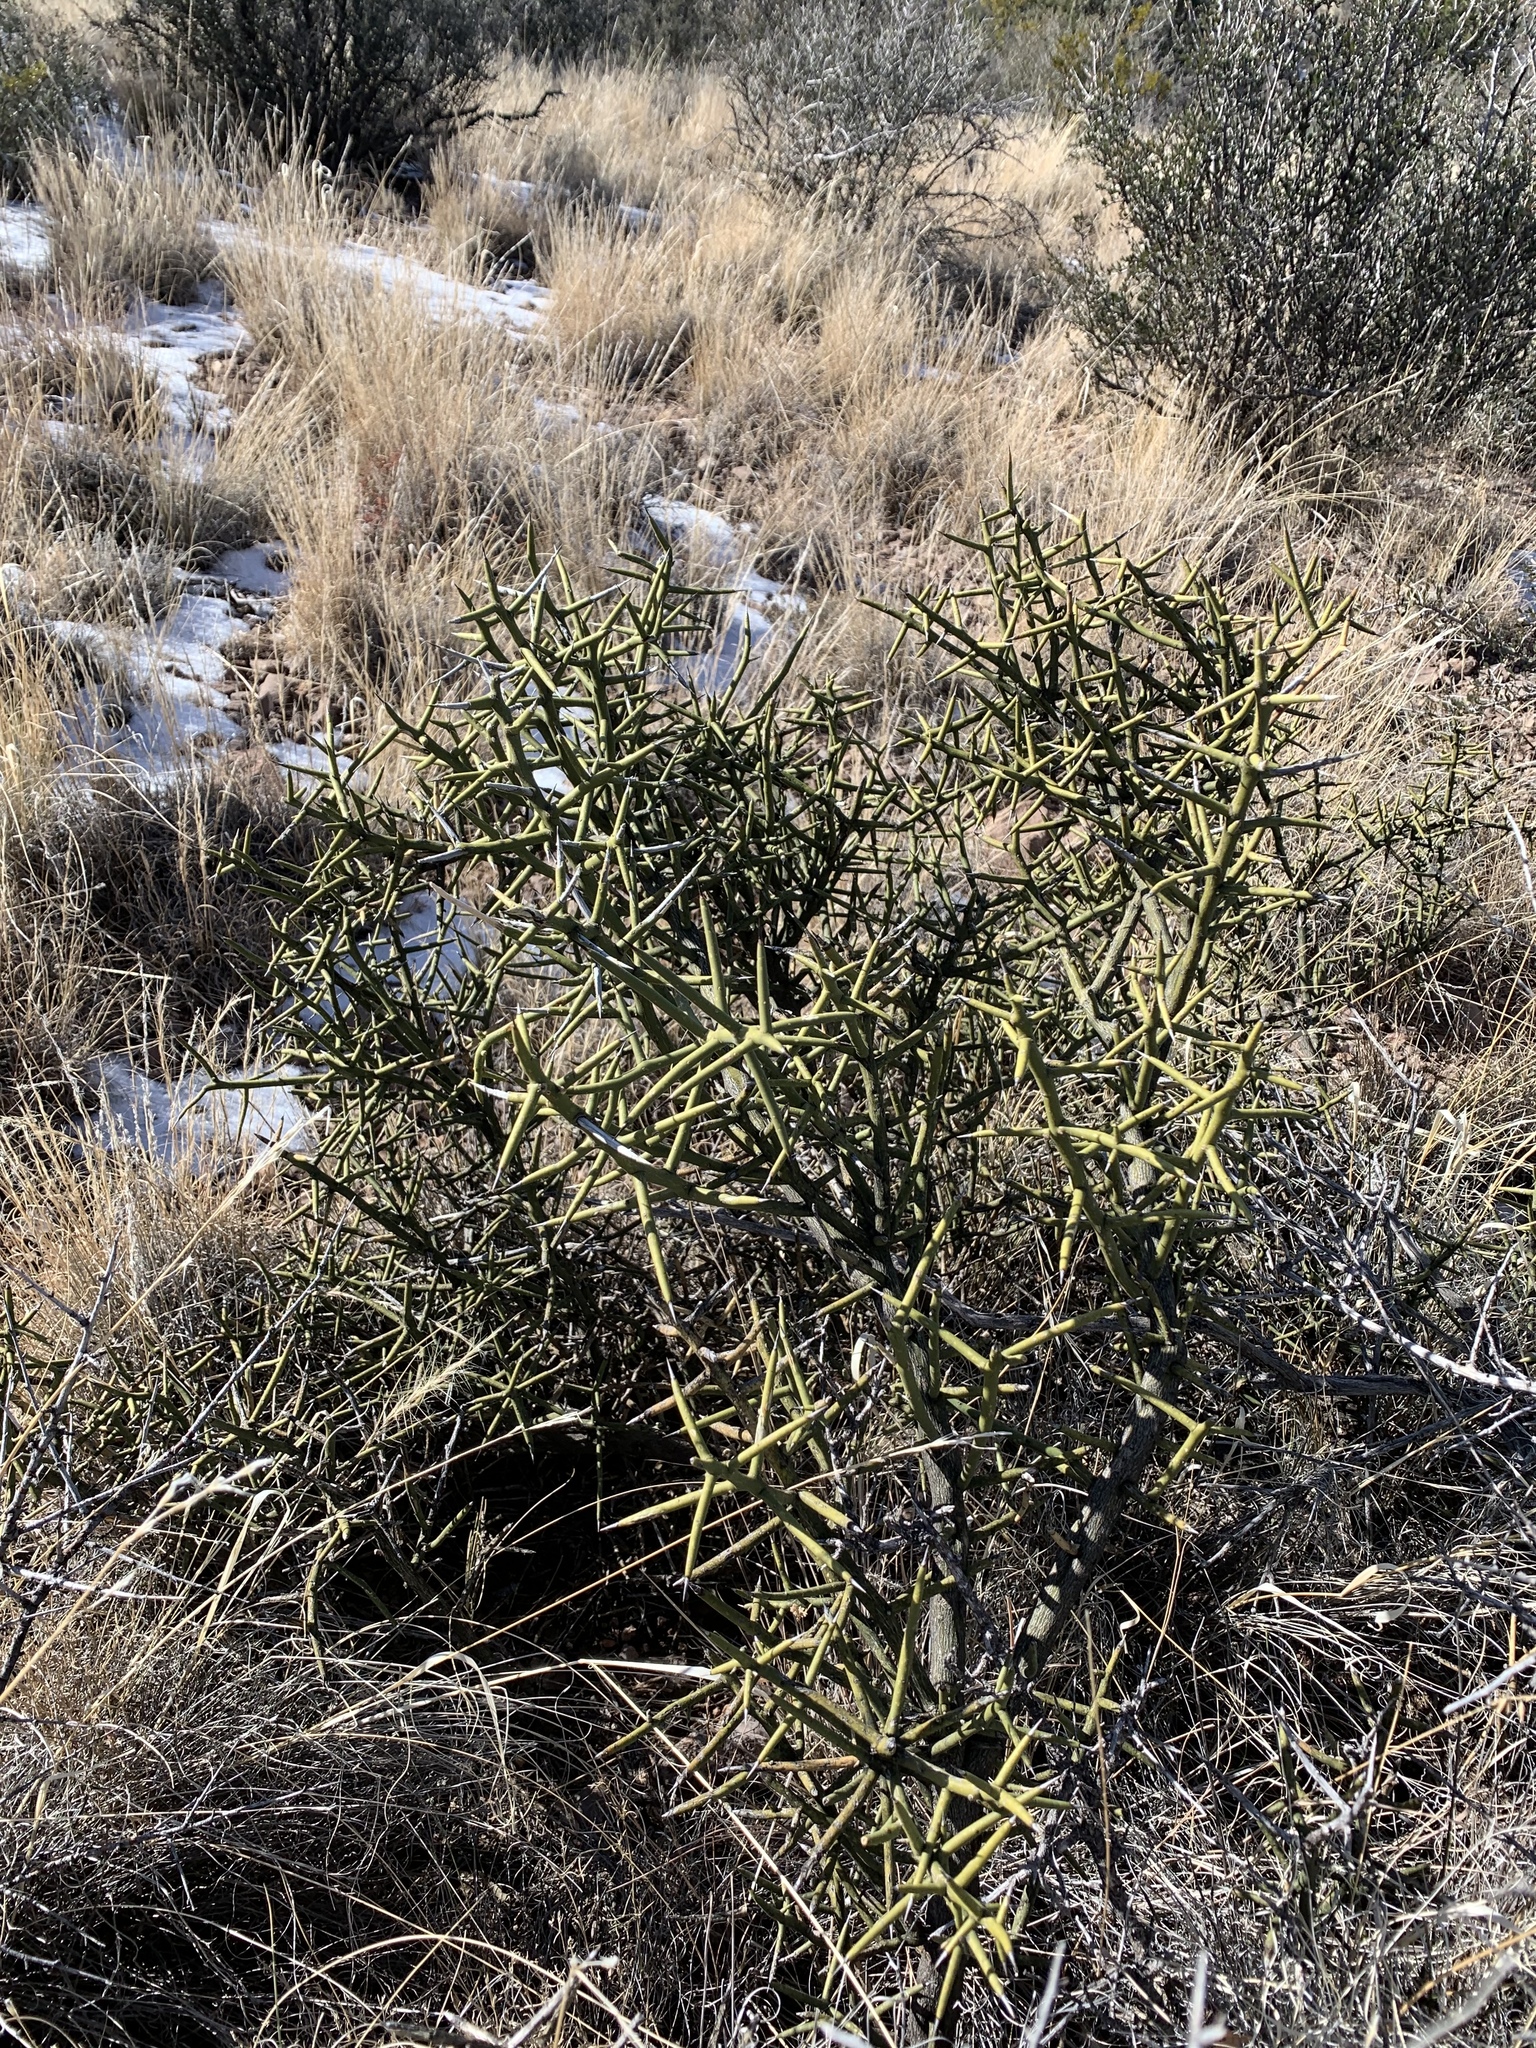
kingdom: Plantae
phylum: Tracheophyta
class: Magnoliopsida
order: Brassicales
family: Koeberliniaceae
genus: Koeberlinia
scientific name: Koeberlinia spinosa
